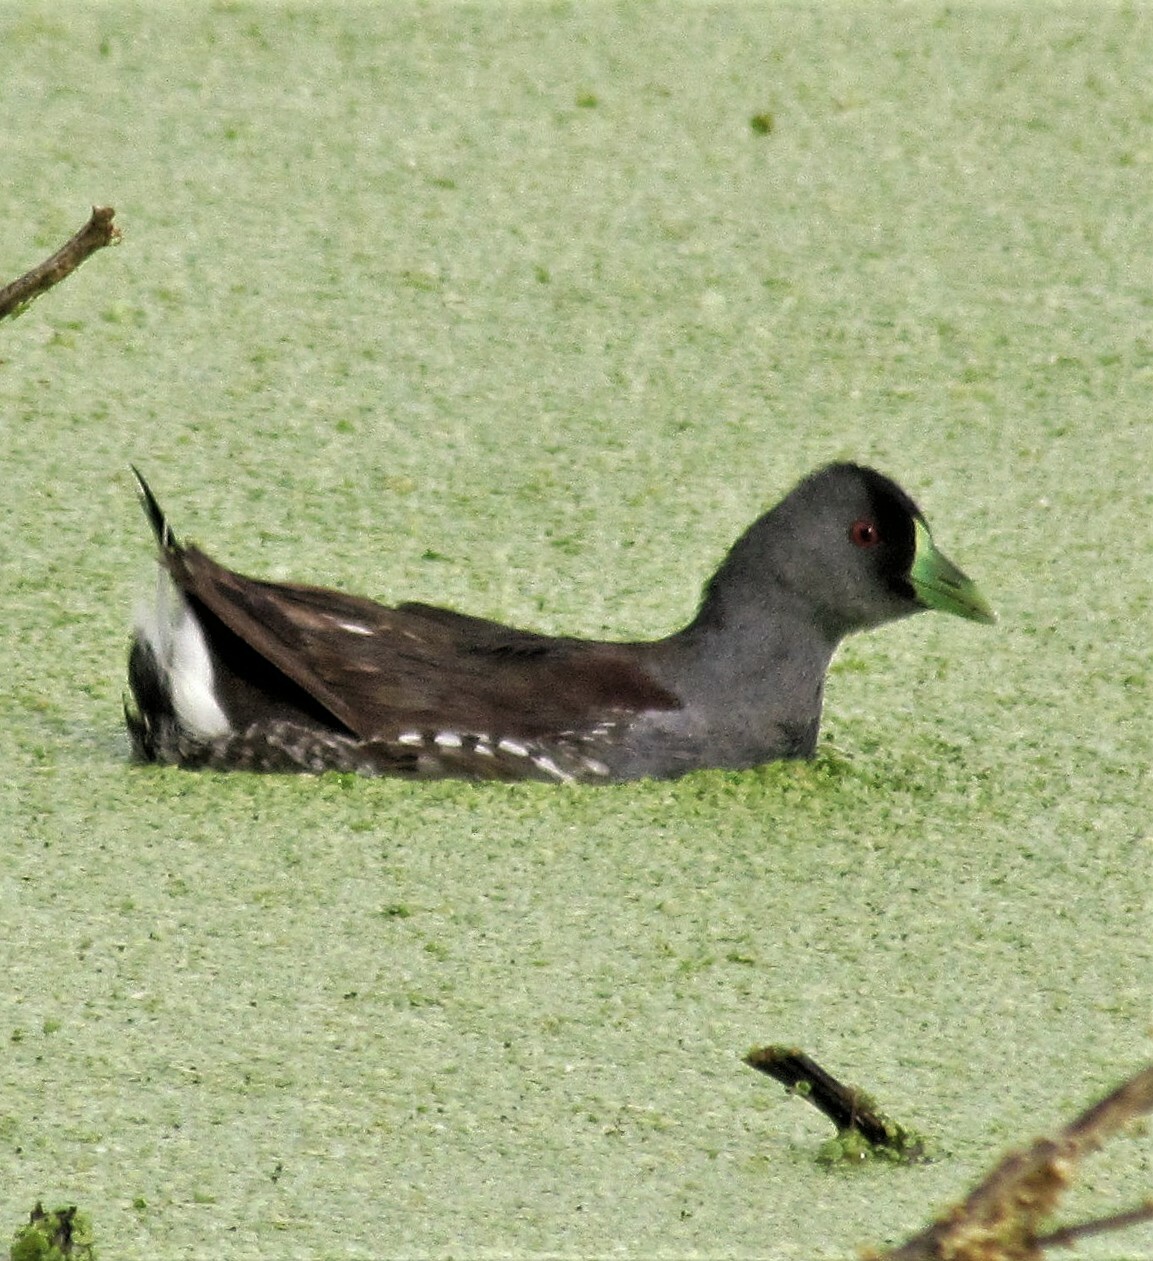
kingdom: Animalia
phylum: Chordata
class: Aves
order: Gruiformes
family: Rallidae
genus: Gallinula
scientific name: Gallinula melanops
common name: Spot-flanked gallinule
